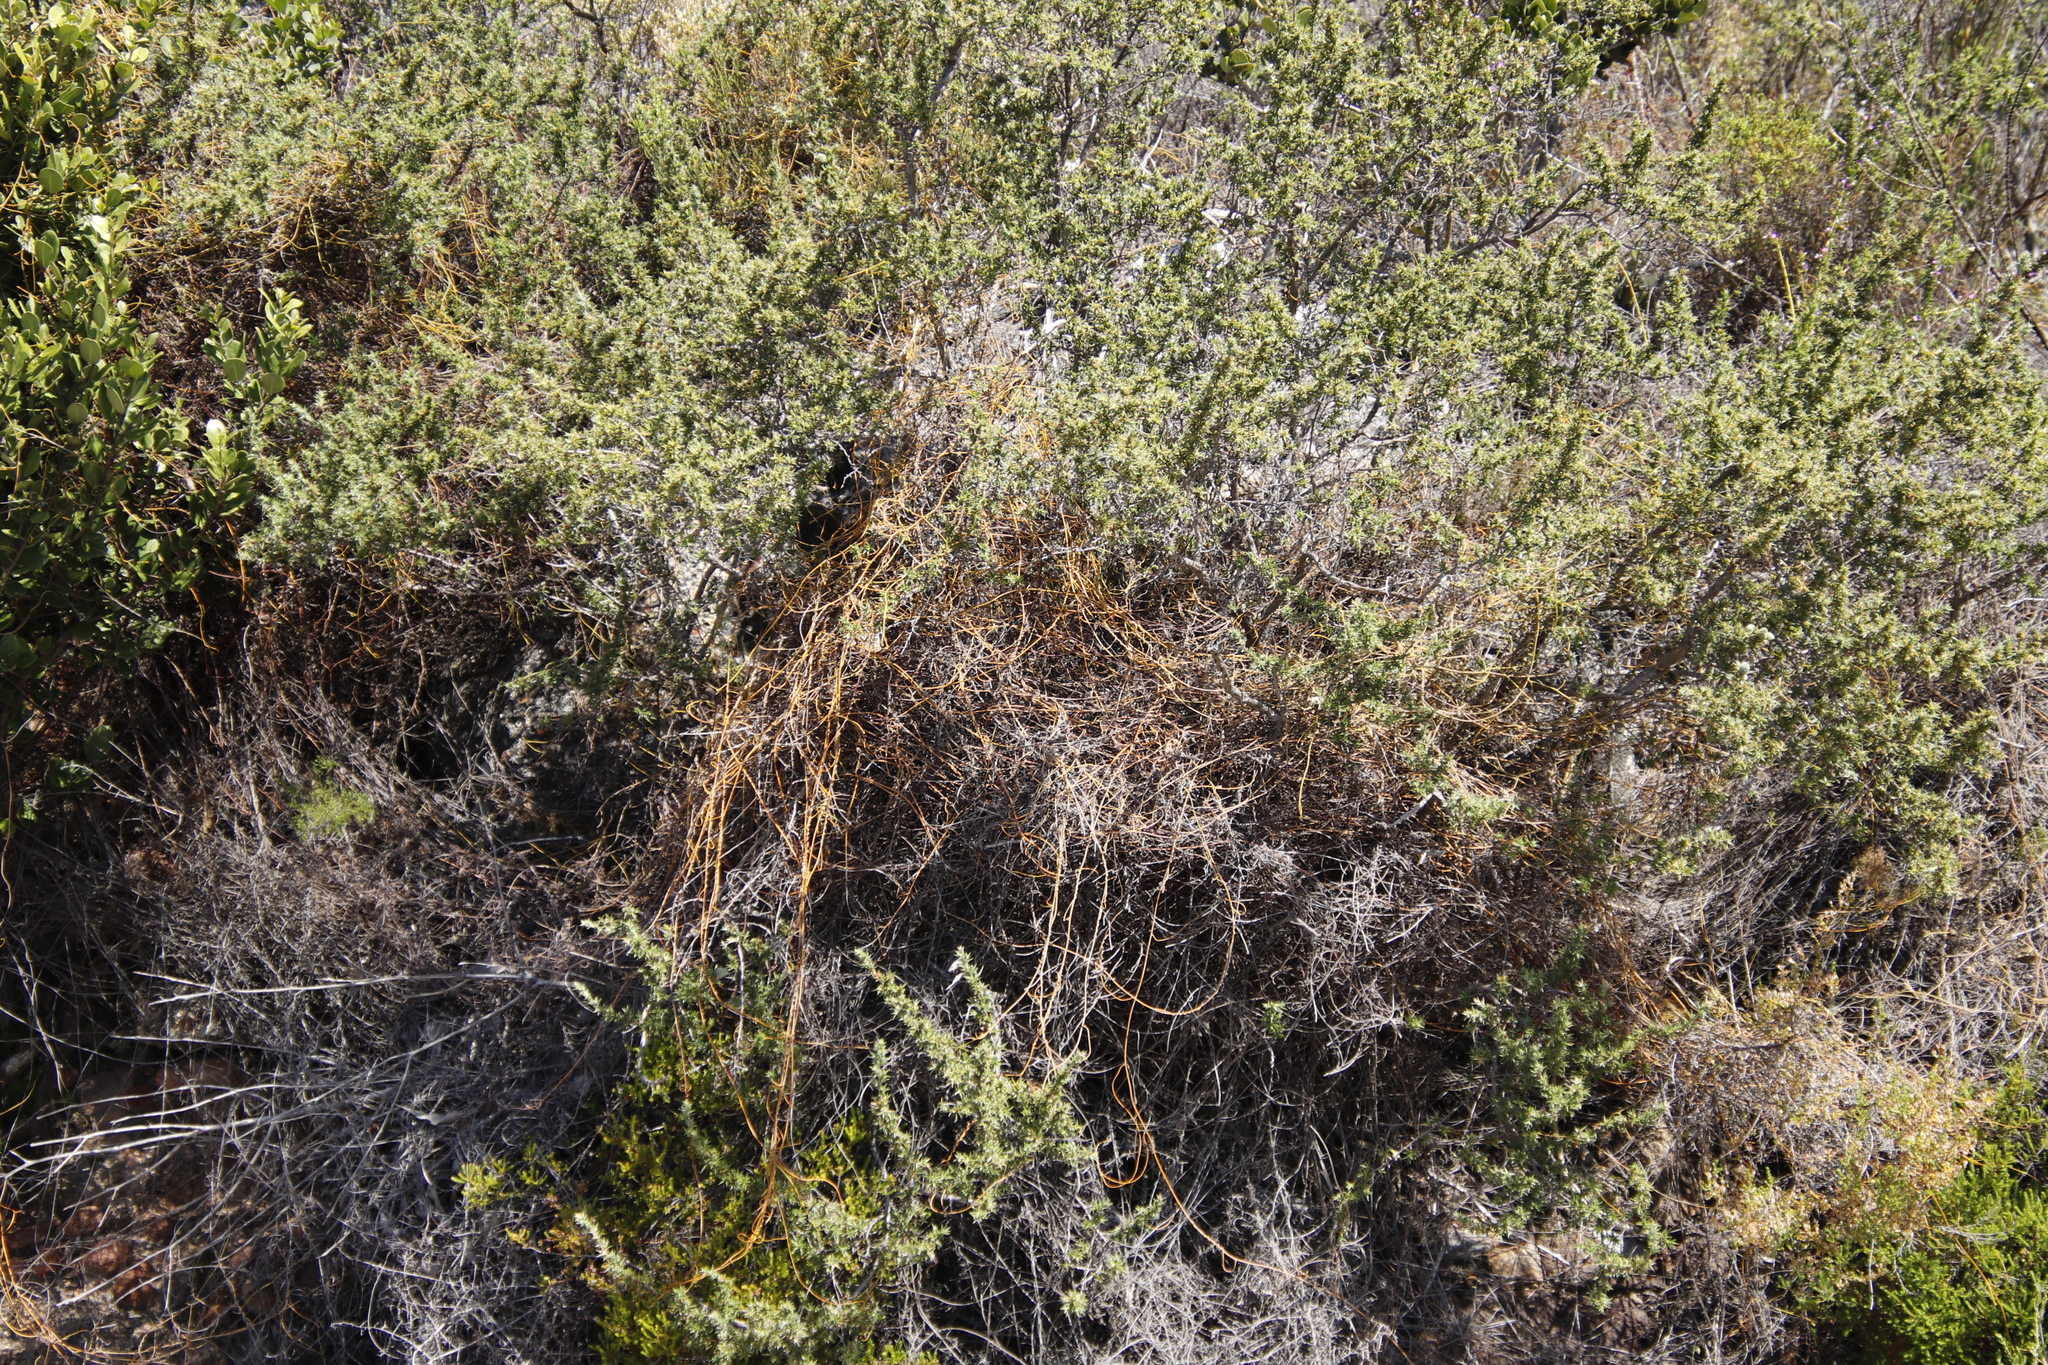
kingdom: Plantae
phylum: Tracheophyta
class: Magnoliopsida
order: Rosales
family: Rosaceae
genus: Cliffortia
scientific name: Cliffortia ruscifolia
